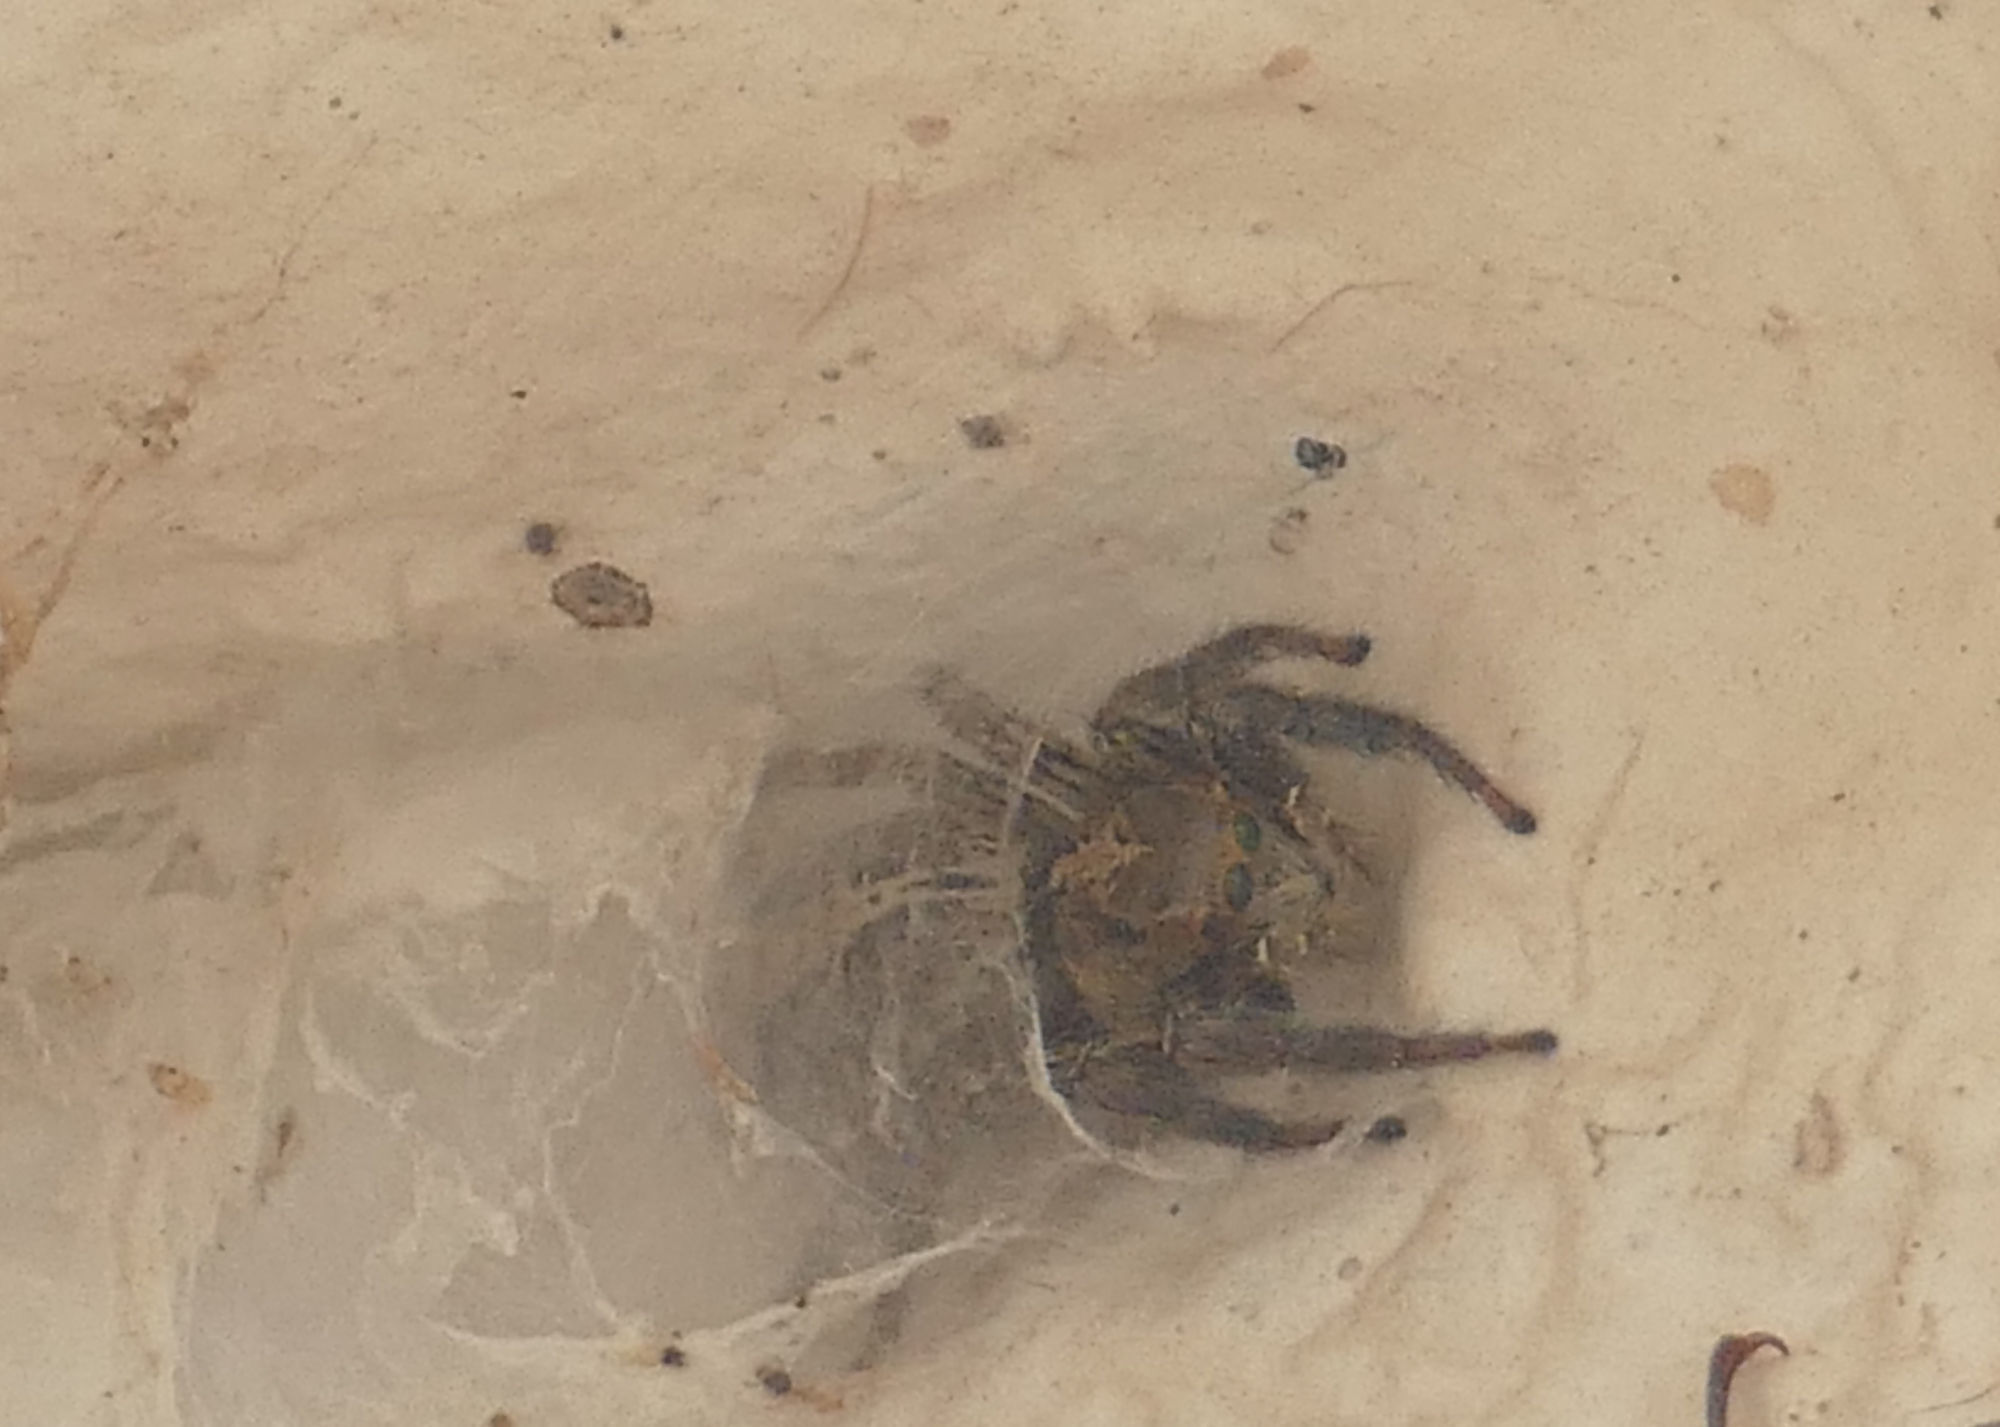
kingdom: Animalia
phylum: Arthropoda
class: Arachnida
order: Araneae
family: Salticidae
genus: Plexippus
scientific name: Plexippus paykulli
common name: Pantropical jumper
